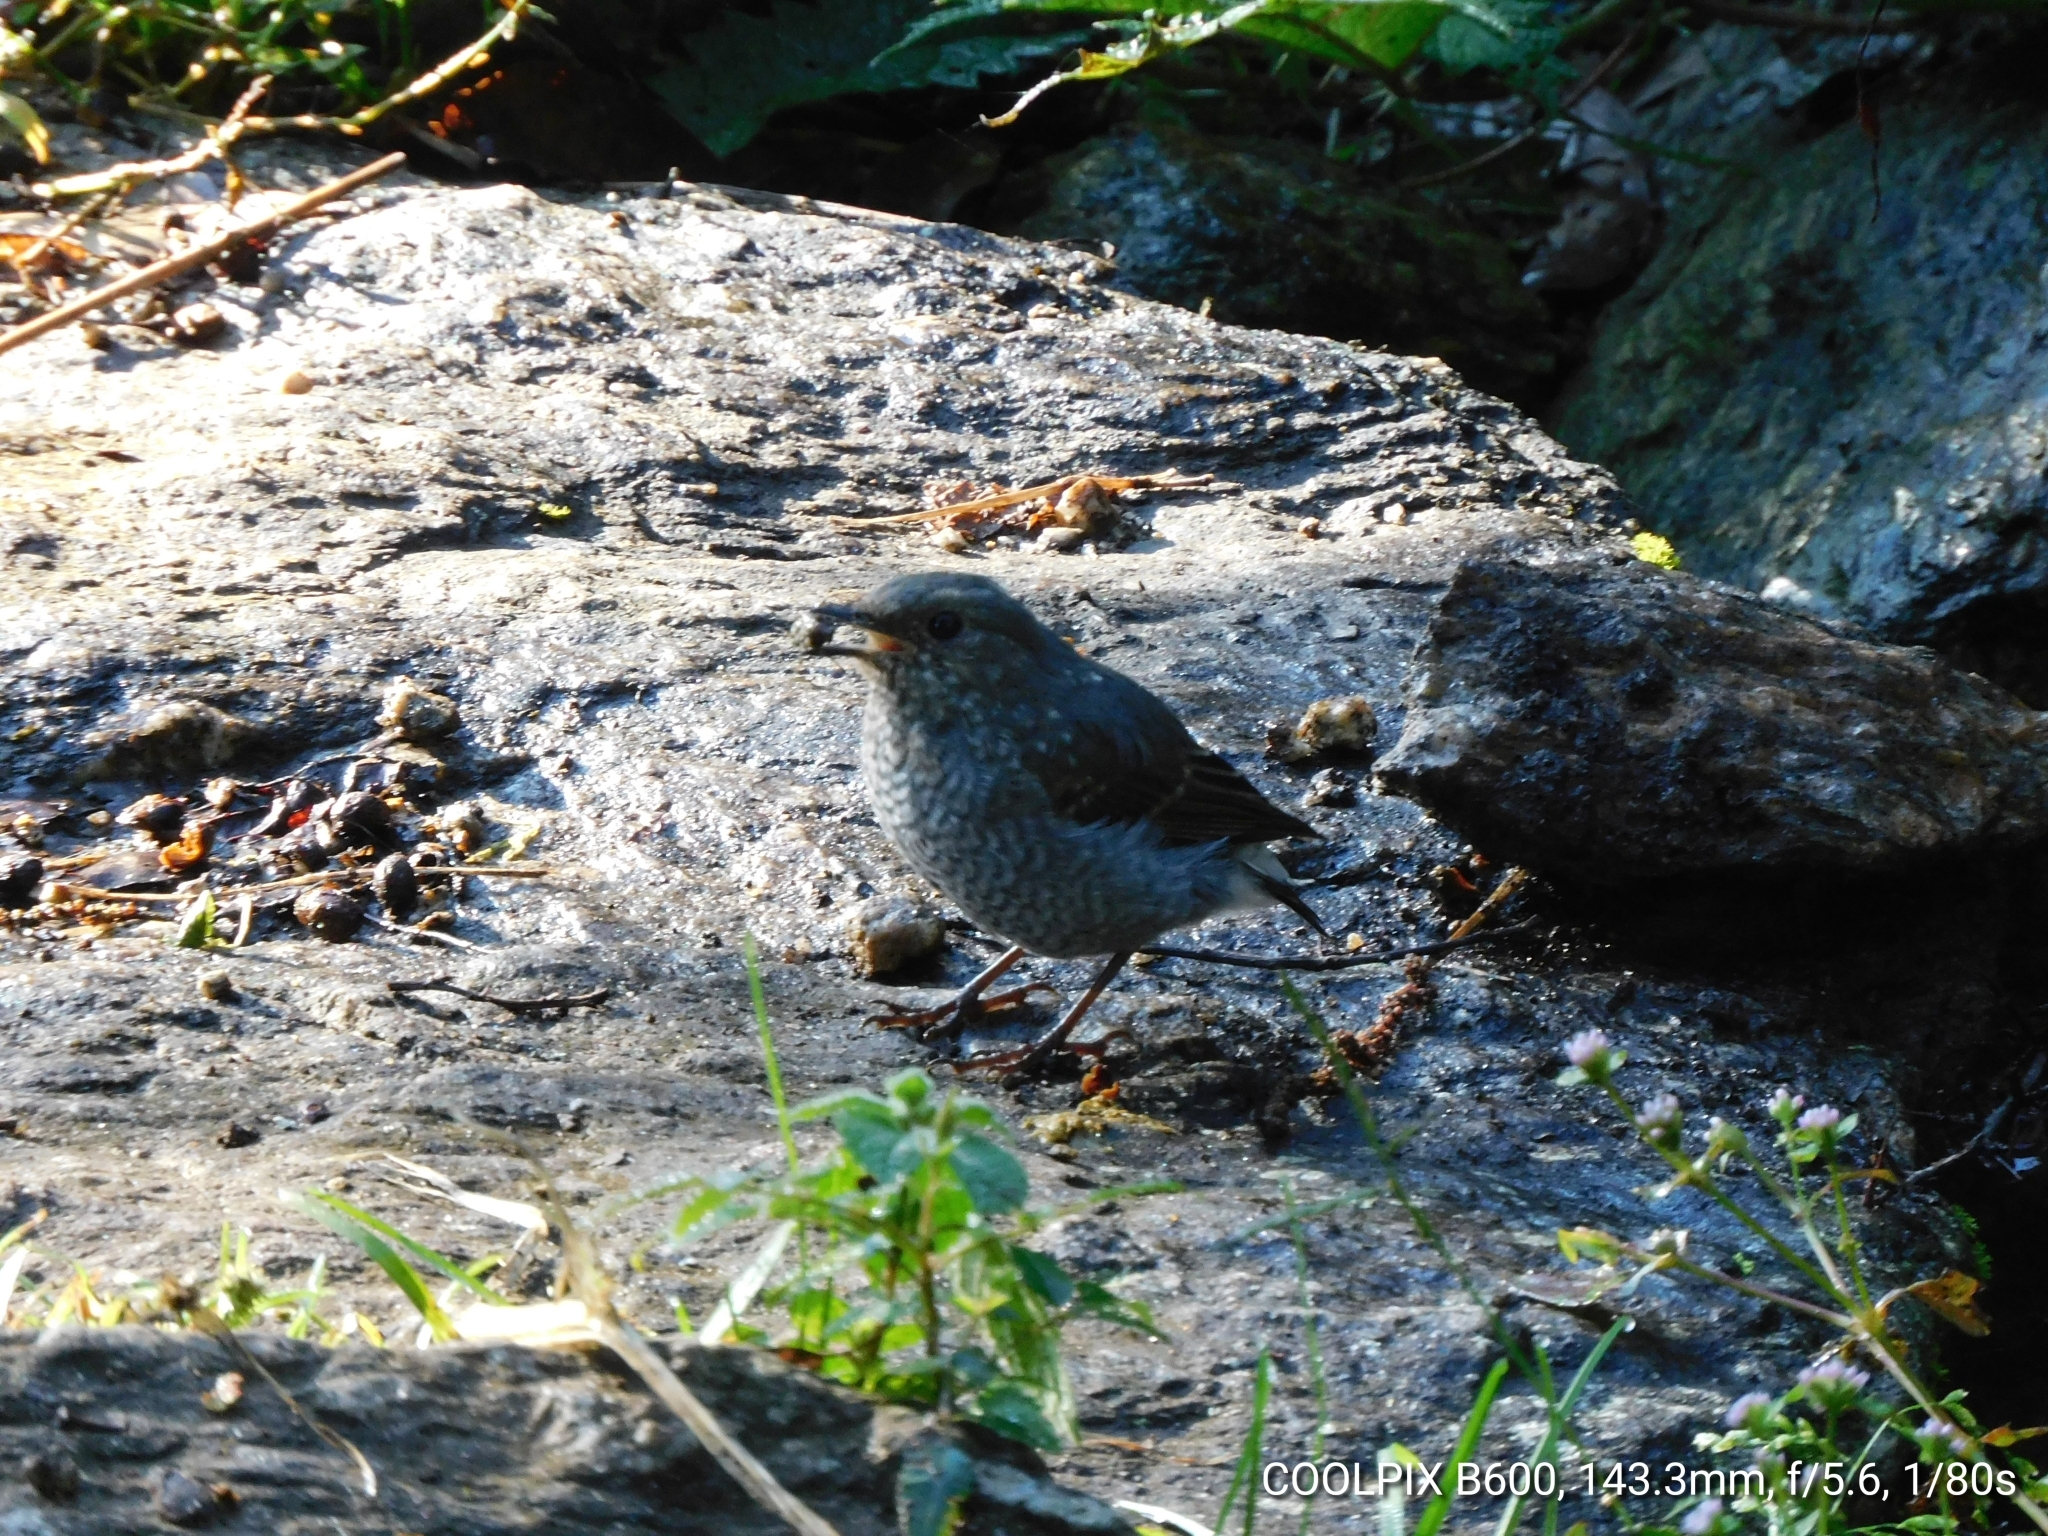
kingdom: Animalia
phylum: Chordata
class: Aves
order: Passeriformes
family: Muscicapidae
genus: Phoenicurus
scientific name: Phoenicurus fuliginosus
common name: Plumbeous water redstart
